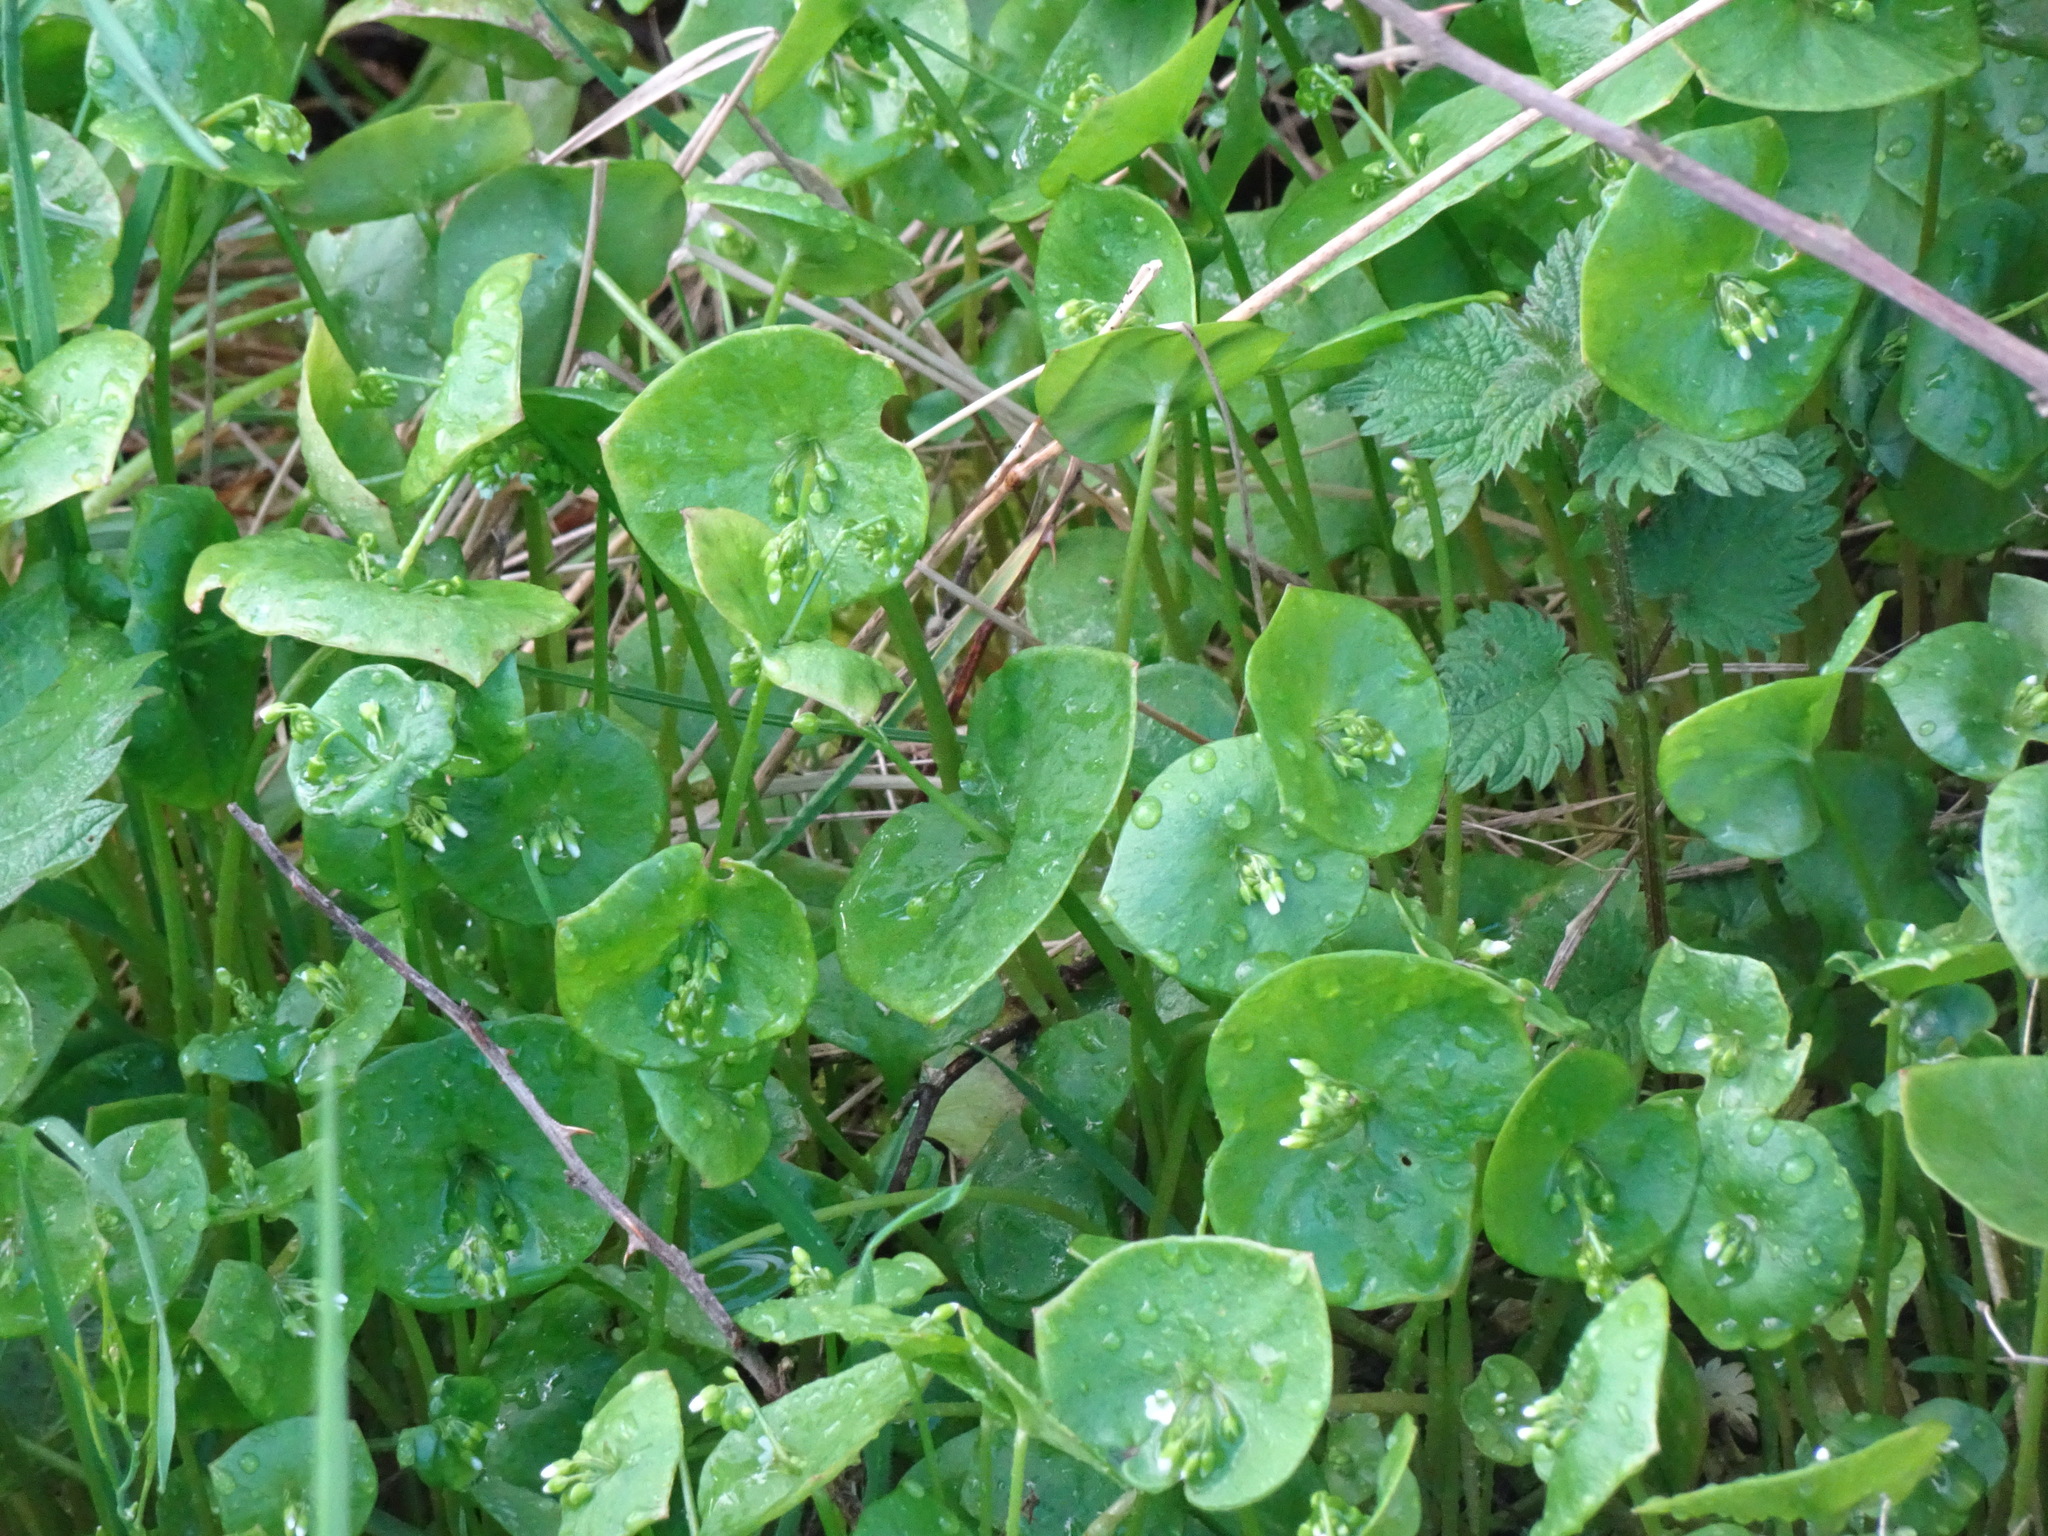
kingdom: Plantae
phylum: Tracheophyta
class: Magnoliopsida
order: Caryophyllales
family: Montiaceae
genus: Claytonia
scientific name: Claytonia perfoliata
